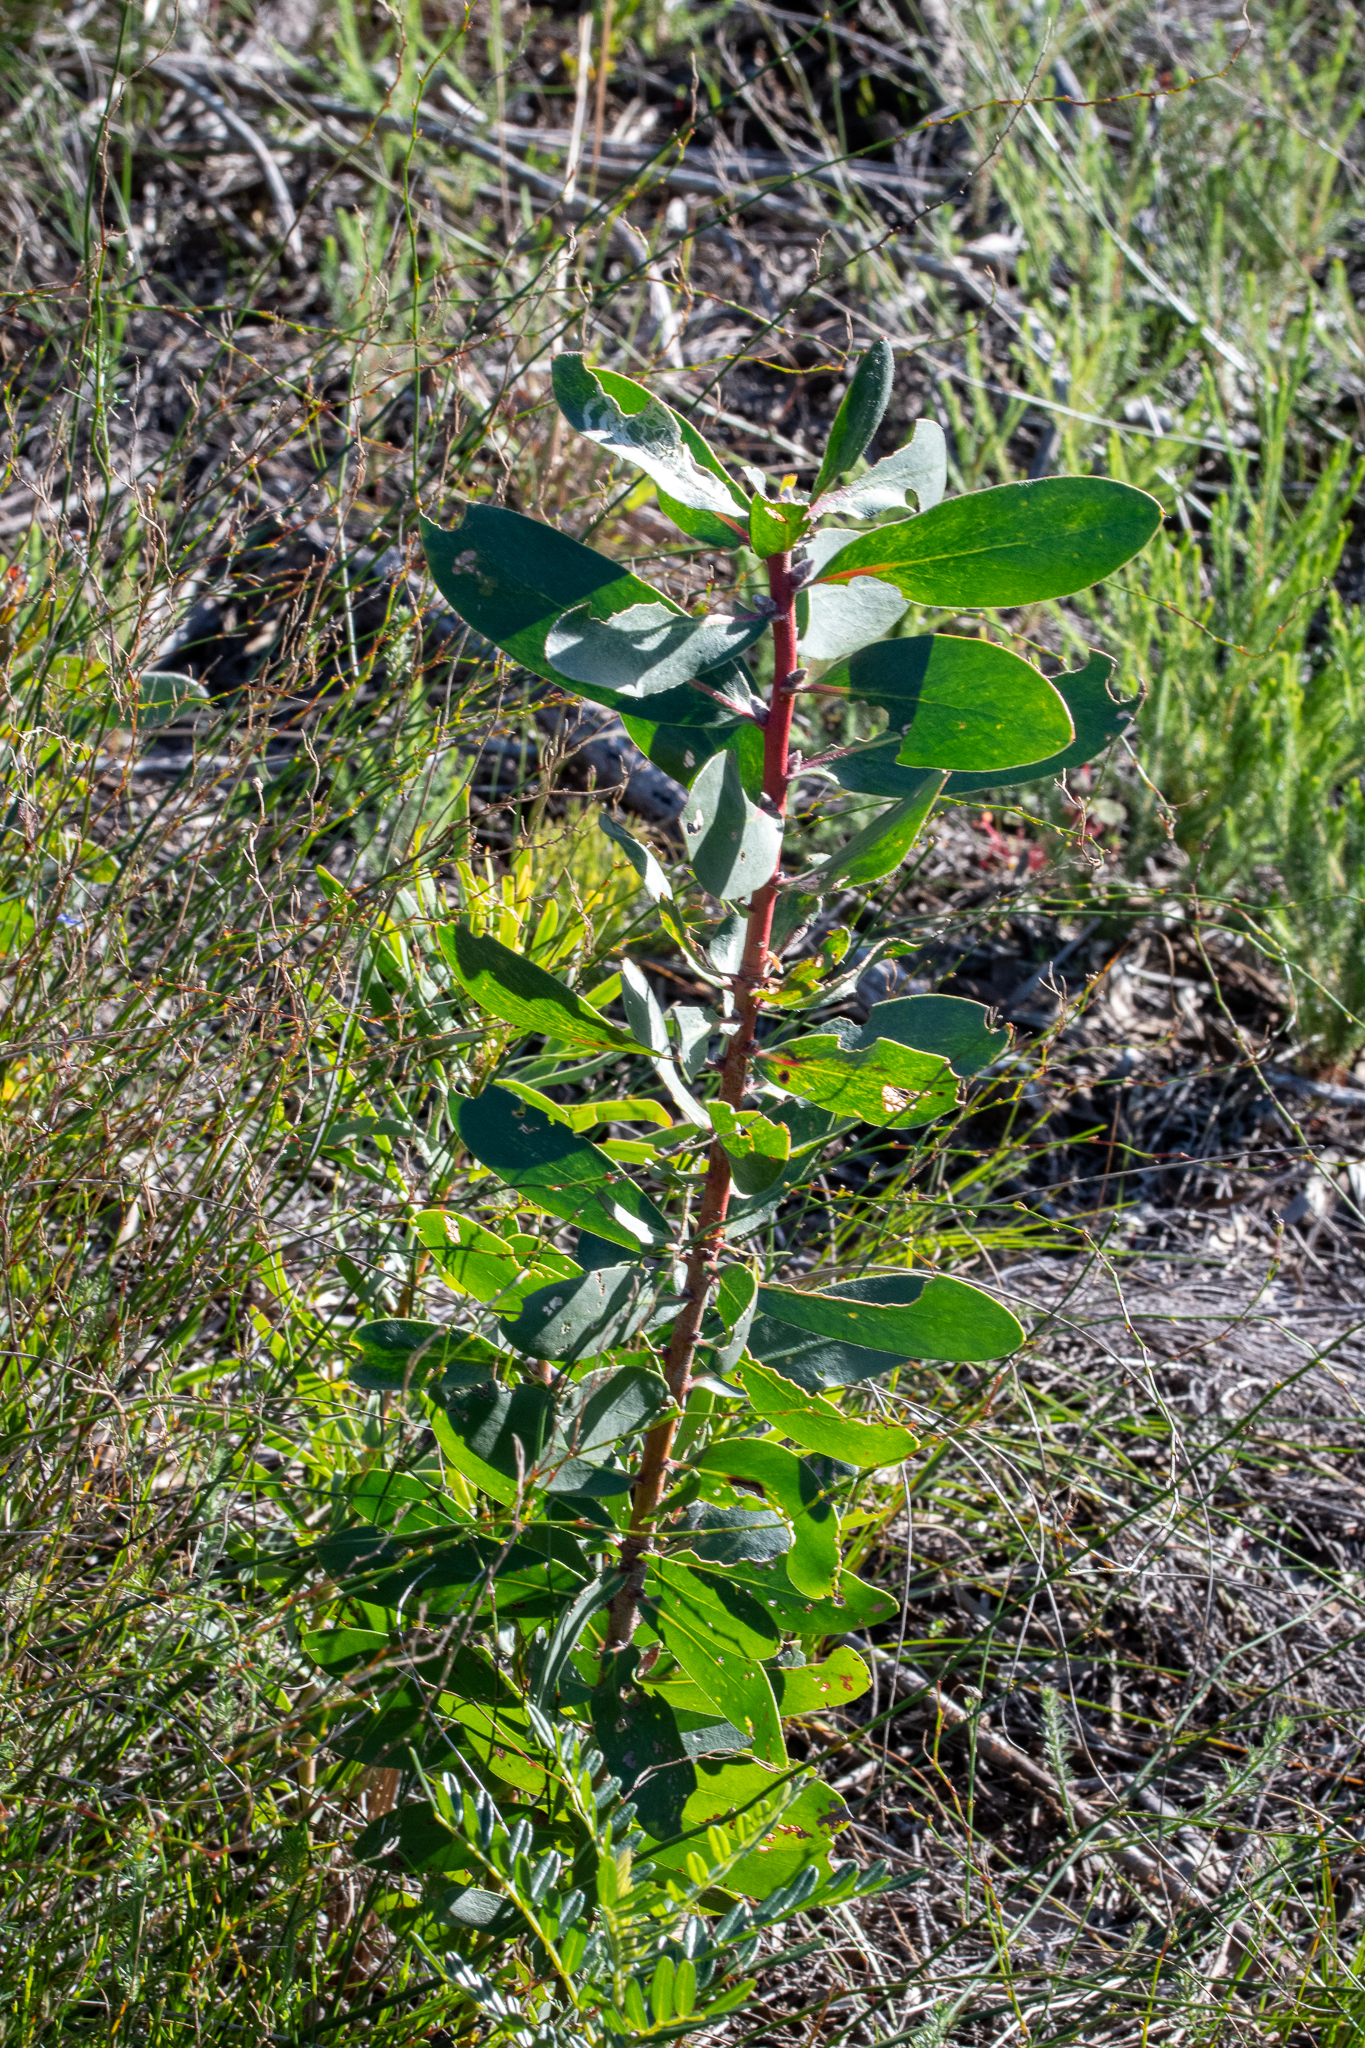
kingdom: Plantae
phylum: Tracheophyta
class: Magnoliopsida
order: Proteales
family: Proteaceae
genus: Protea
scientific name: Protea mundii
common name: Forest sugarbush
